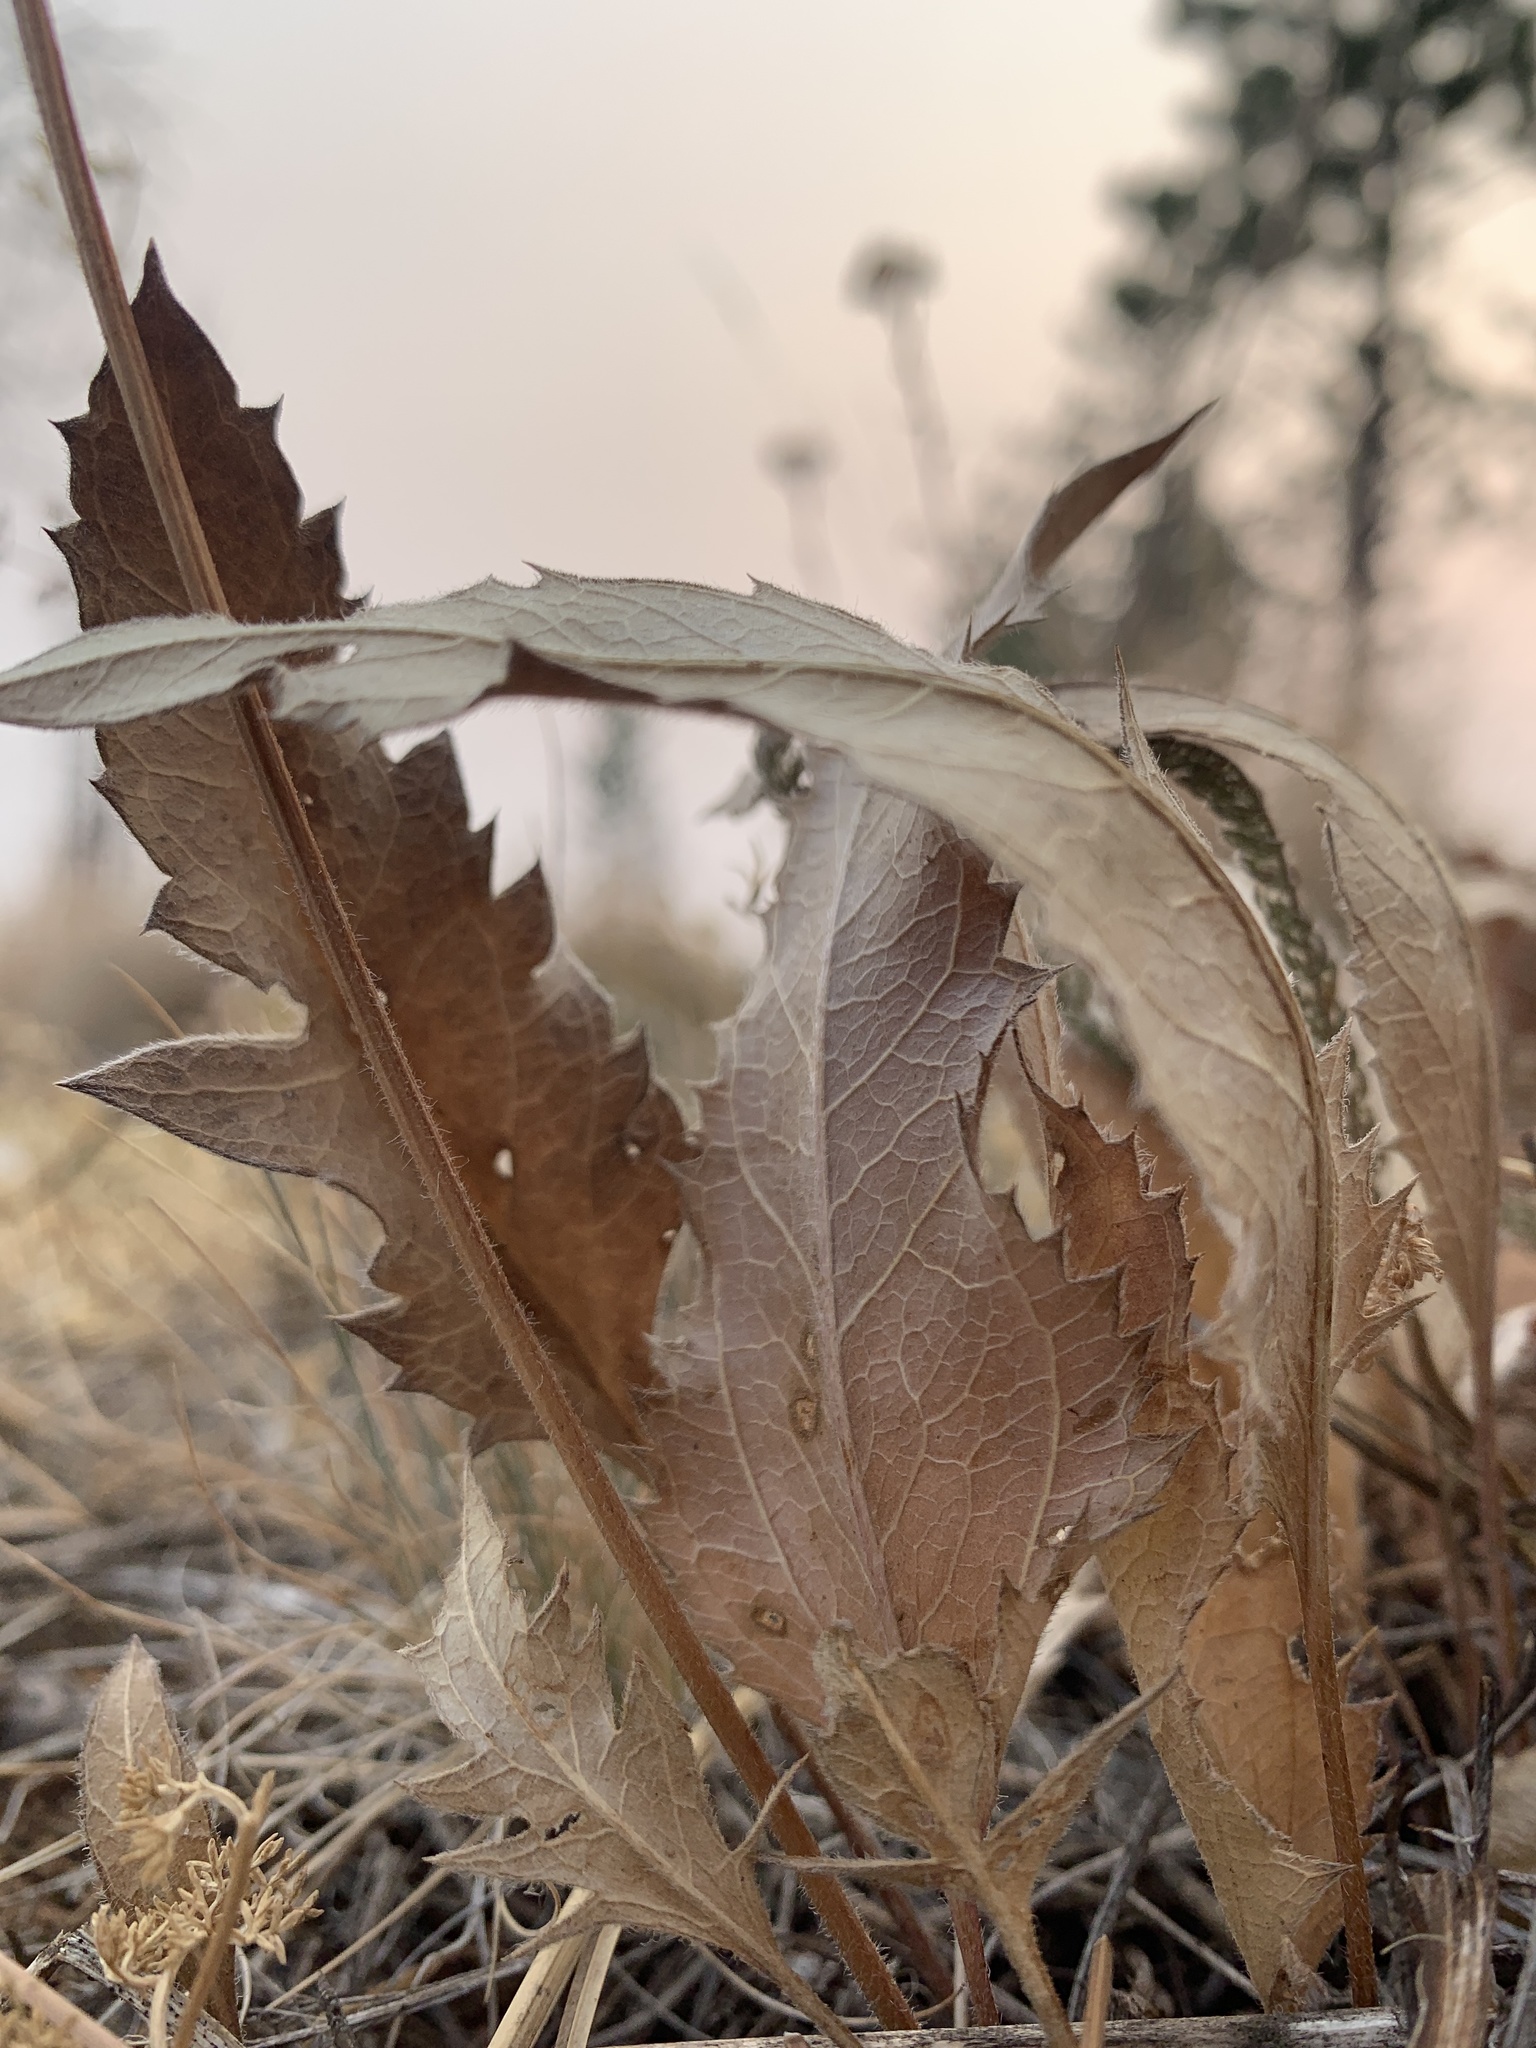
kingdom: Plantae
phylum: Tracheophyta
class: Magnoliopsida
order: Asterales
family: Asteraceae
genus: Balsamorhiza
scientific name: Balsamorhiza serrata
